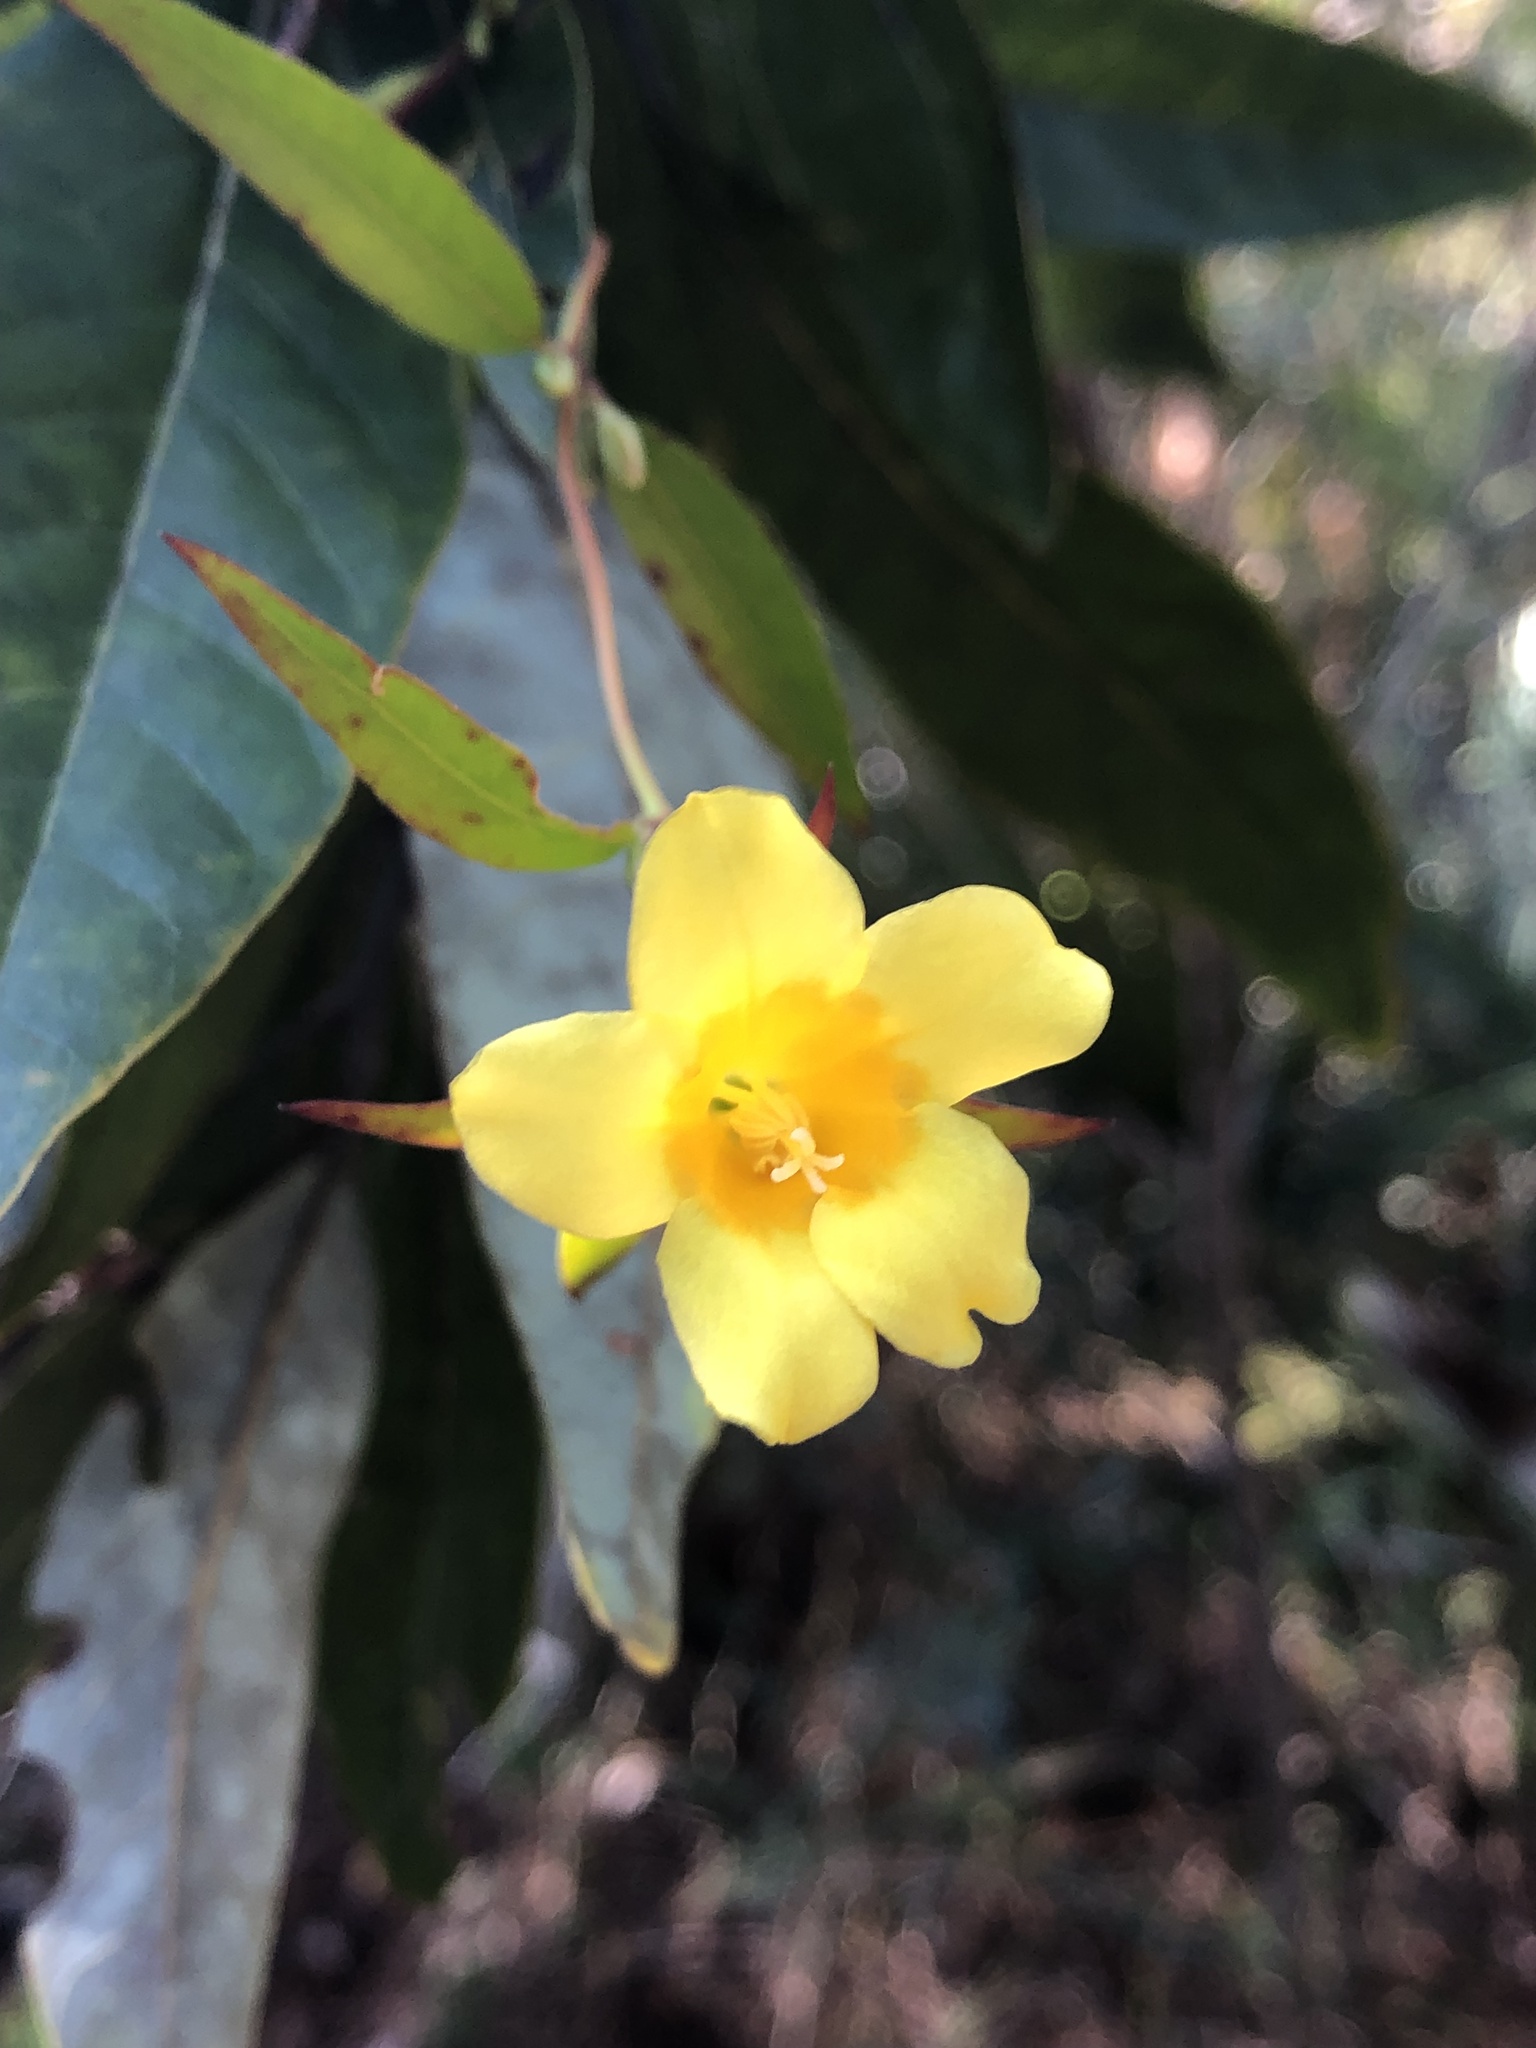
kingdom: Plantae
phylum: Tracheophyta
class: Magnoliopsida
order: Gentianales
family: Gelsemiaceae
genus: Gelsemium
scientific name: Gelsemium sempervirens
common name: Carolina-jasmine
